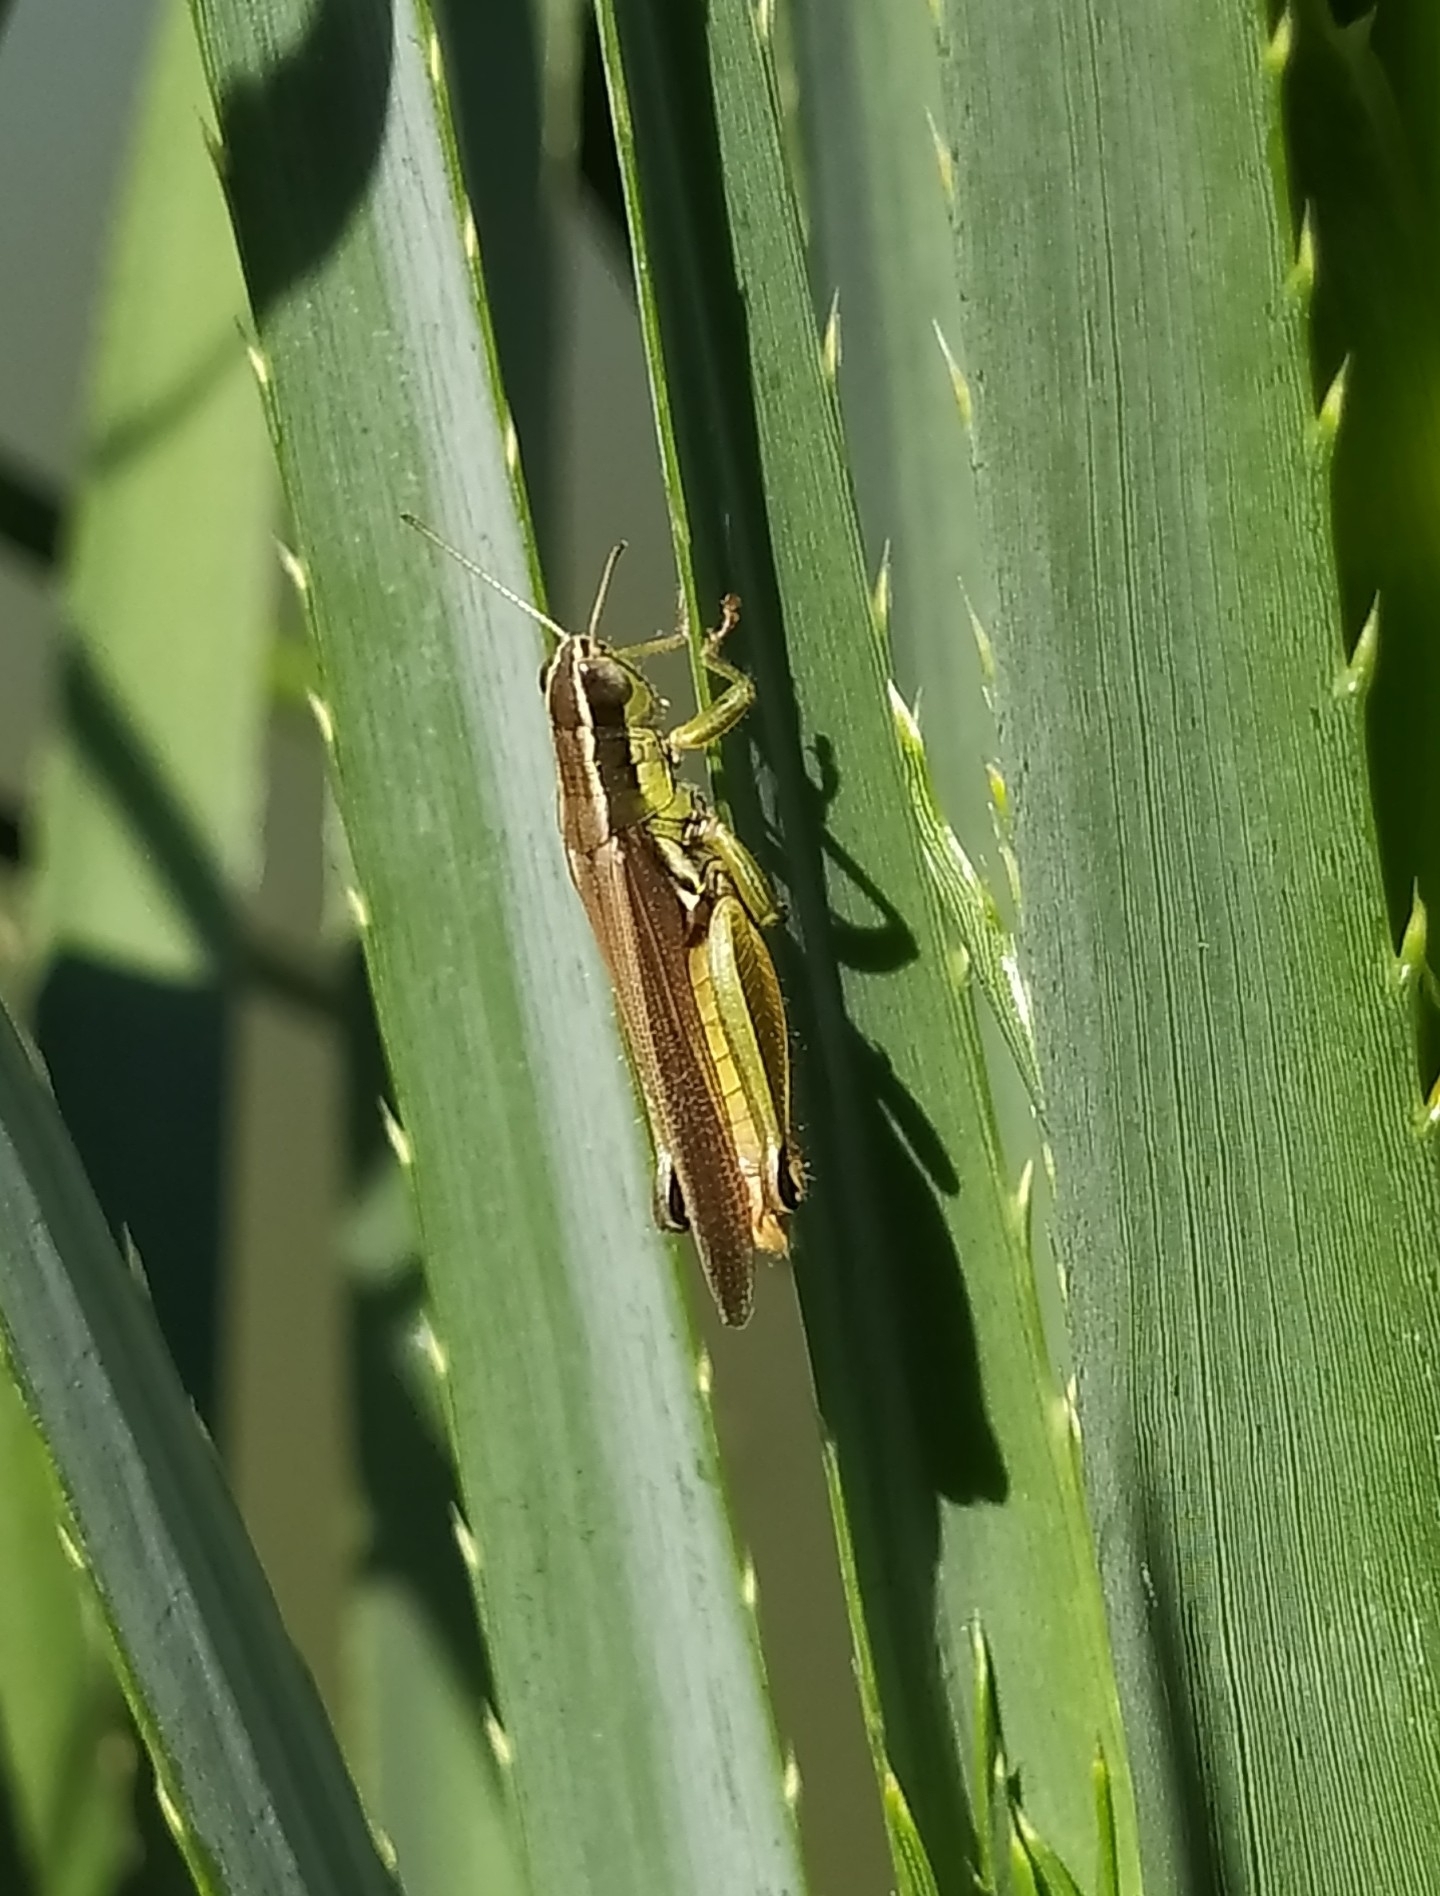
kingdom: Animalia
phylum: Arthropoda
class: Insecta
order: Orthoptera
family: Acrididae
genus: Scotussa
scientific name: Scotussa cliens
